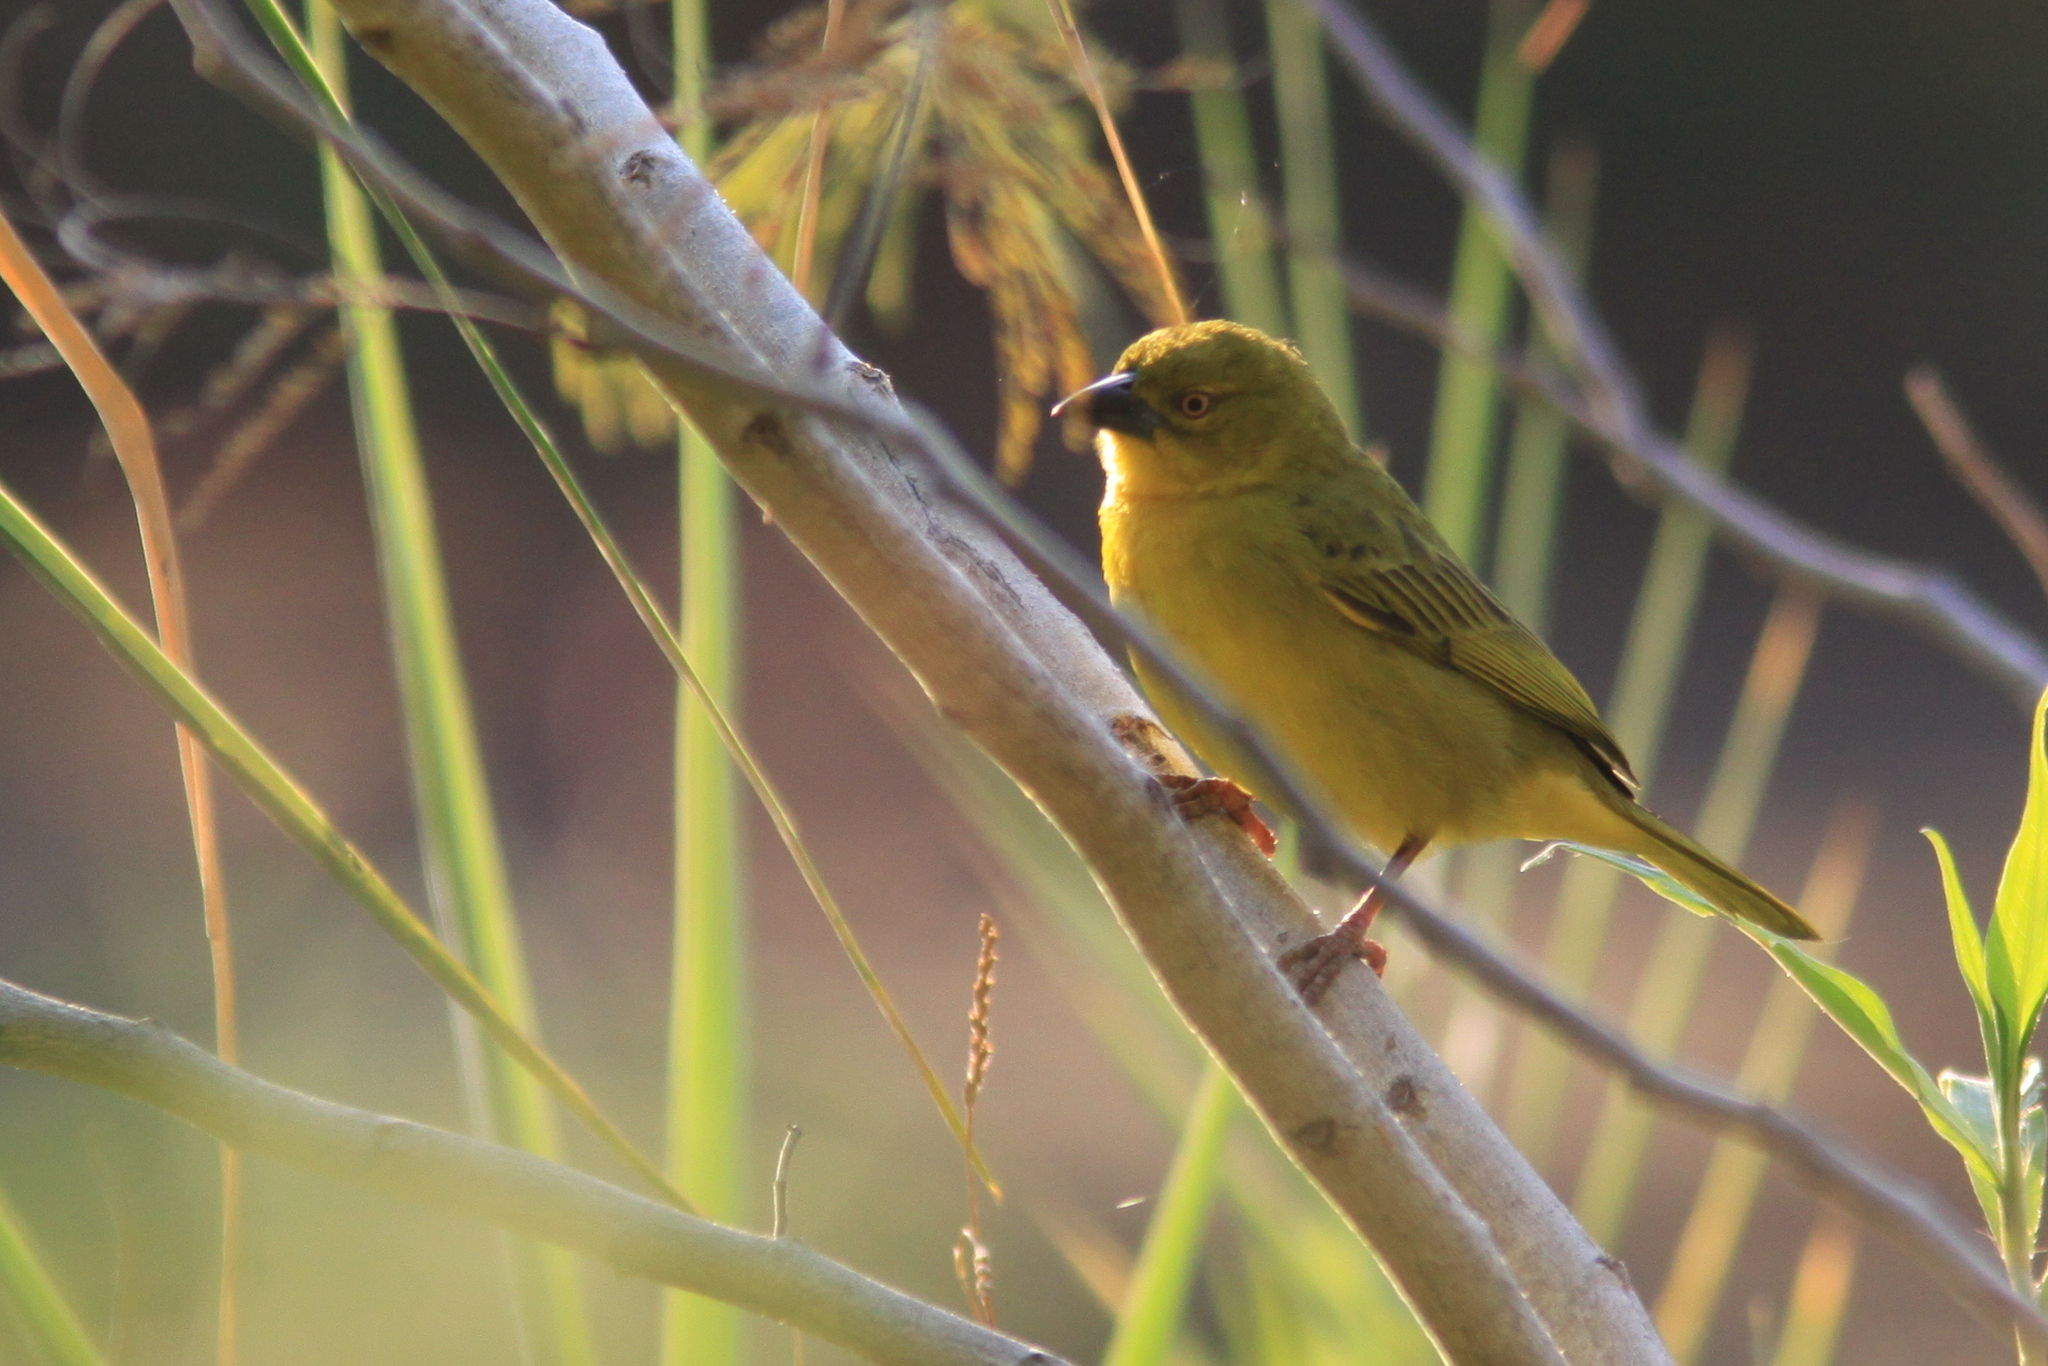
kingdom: Animalia
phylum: Chordata
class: Aves
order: Passeriformes
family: Ploceidae
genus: Ploceus
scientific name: Ploceus xanthops
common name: Holub's golden weaver
